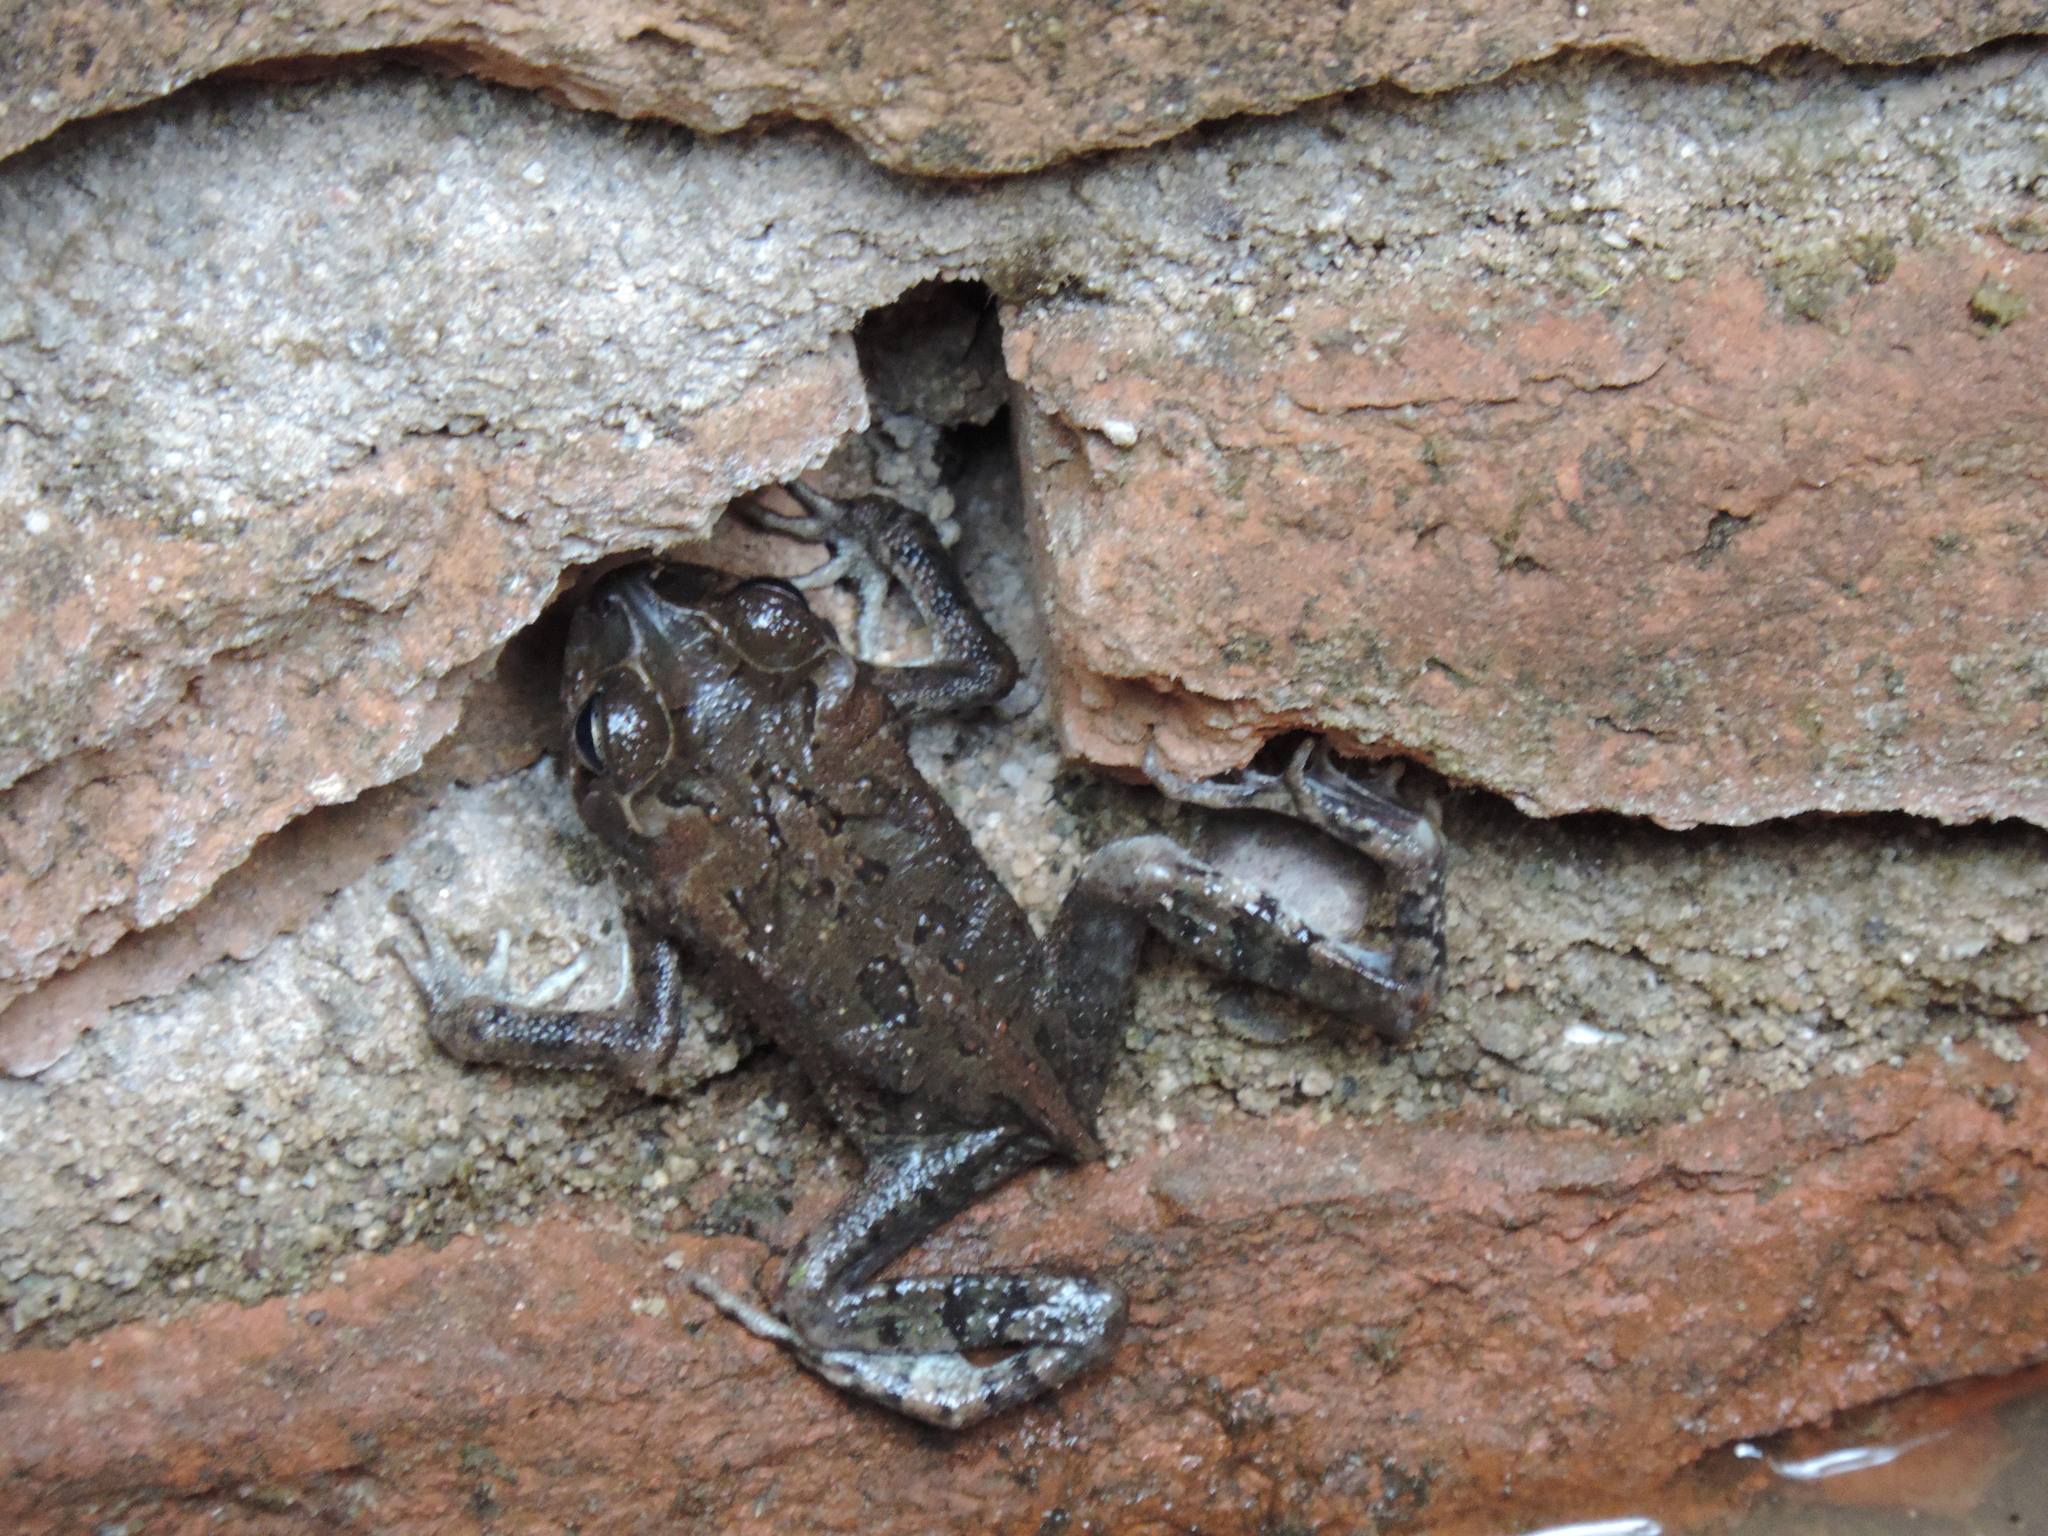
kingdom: Animalia
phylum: Chordata
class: Amphibia
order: Anura
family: Bufonidae
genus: Incilius
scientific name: Incilius mazatlanensis
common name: Sinaloa toad
